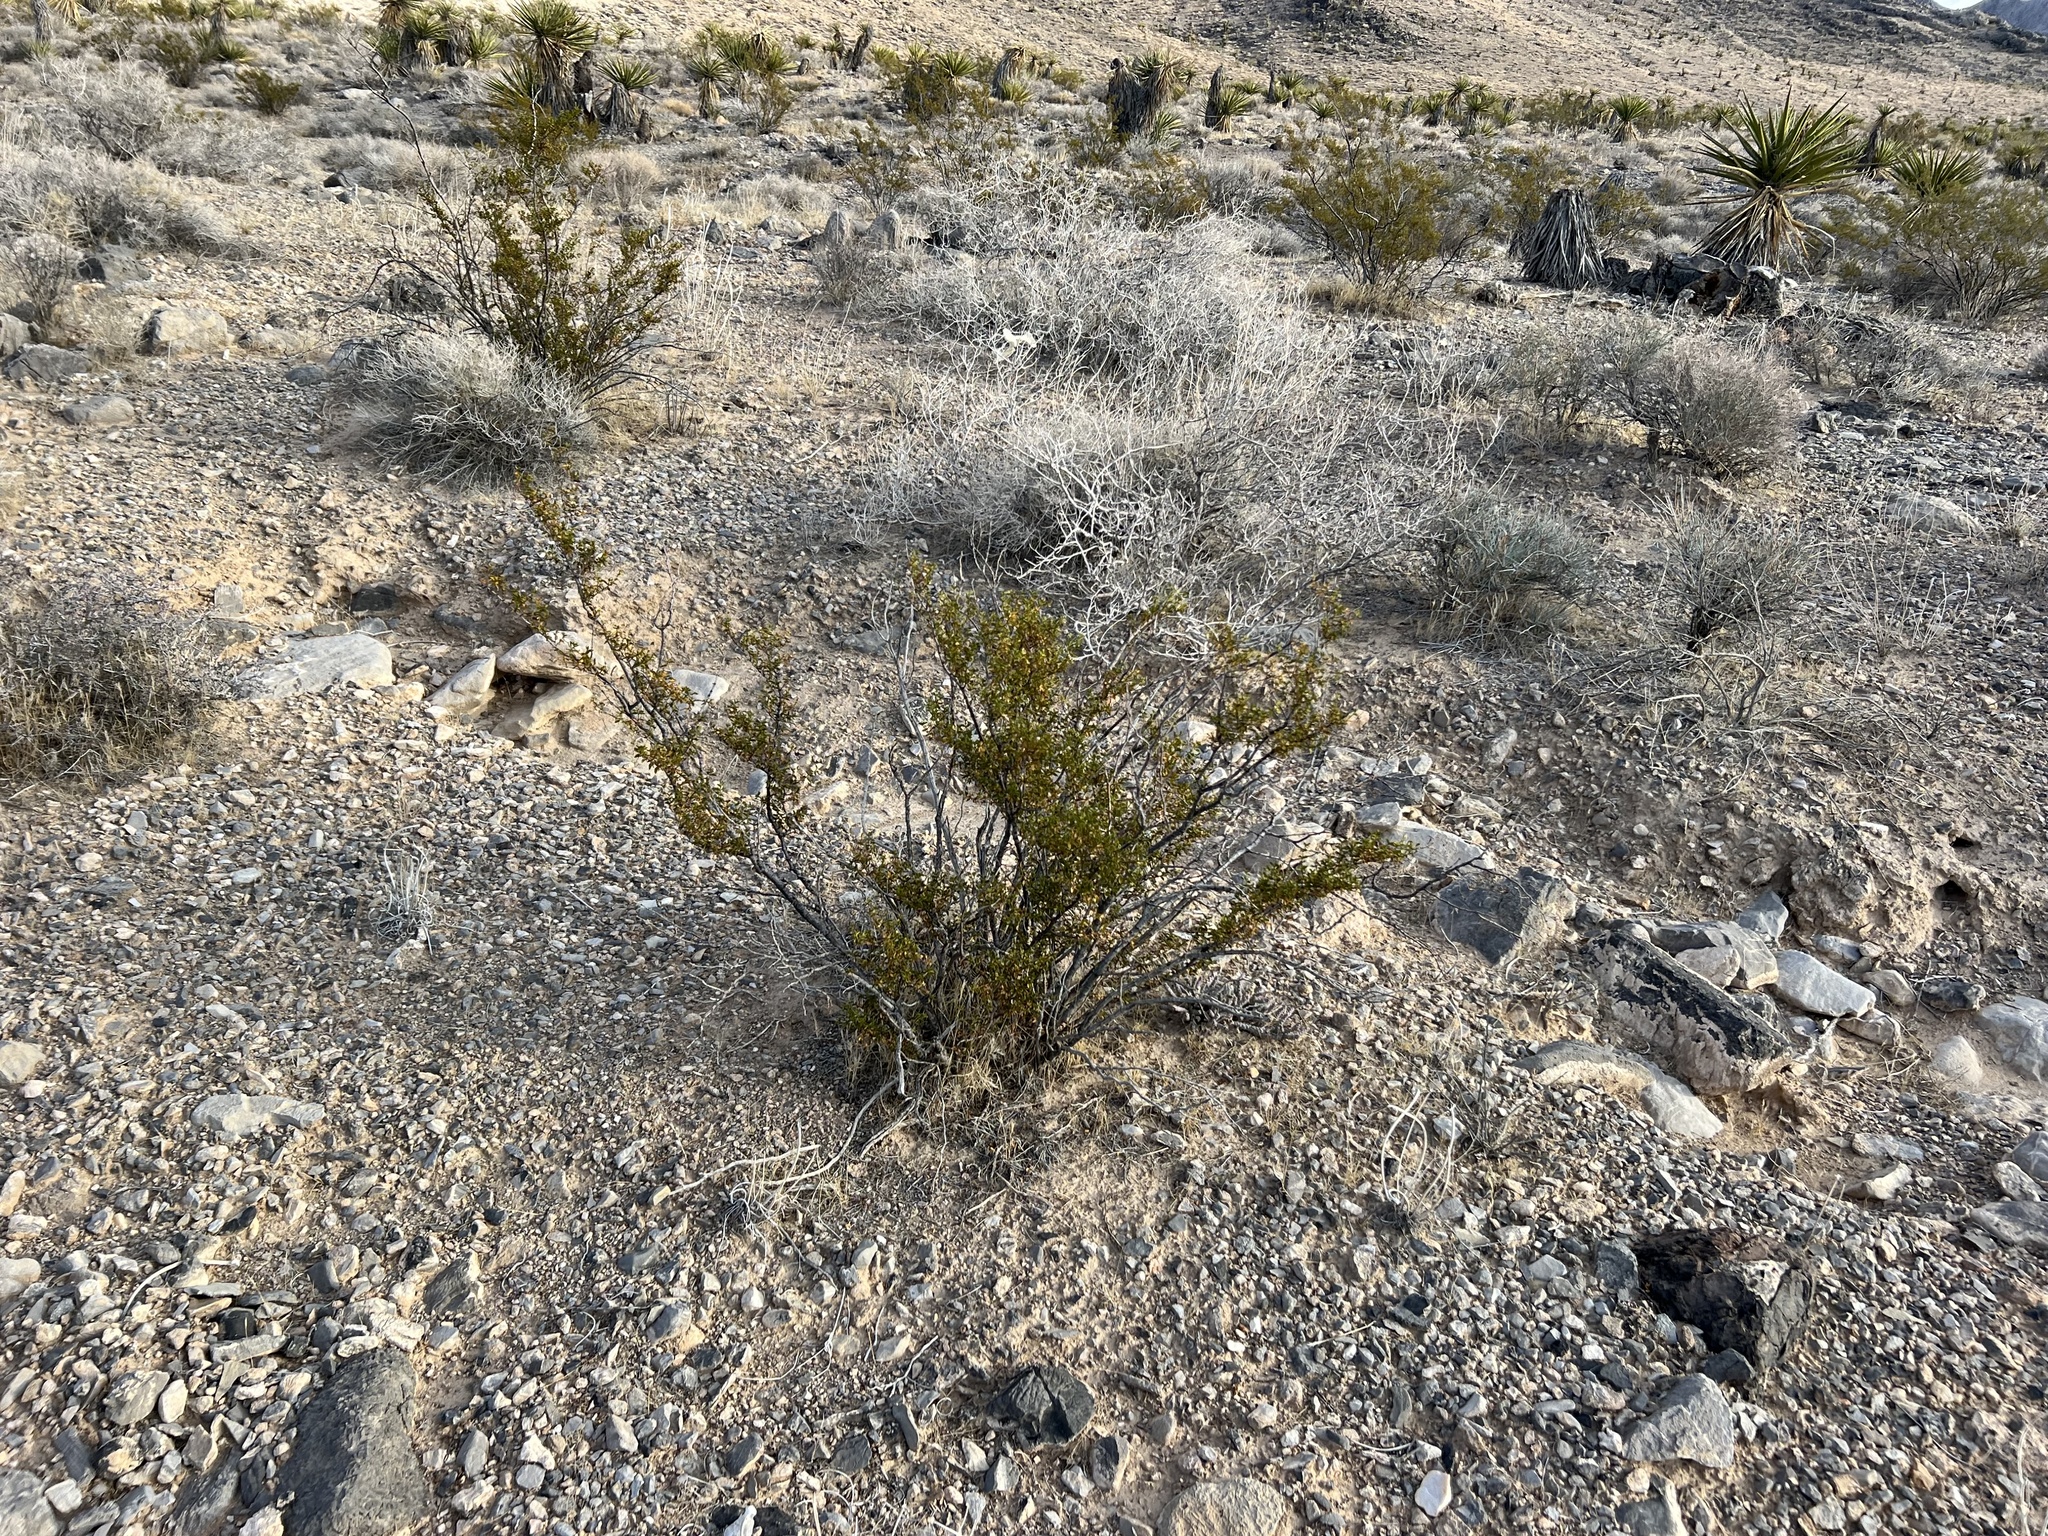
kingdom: Plantae
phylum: Tracheophyta
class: Magnoliopsida
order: Zygophyllales
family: Zygophyllaceae
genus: Larrea
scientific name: Larrea tridentata
